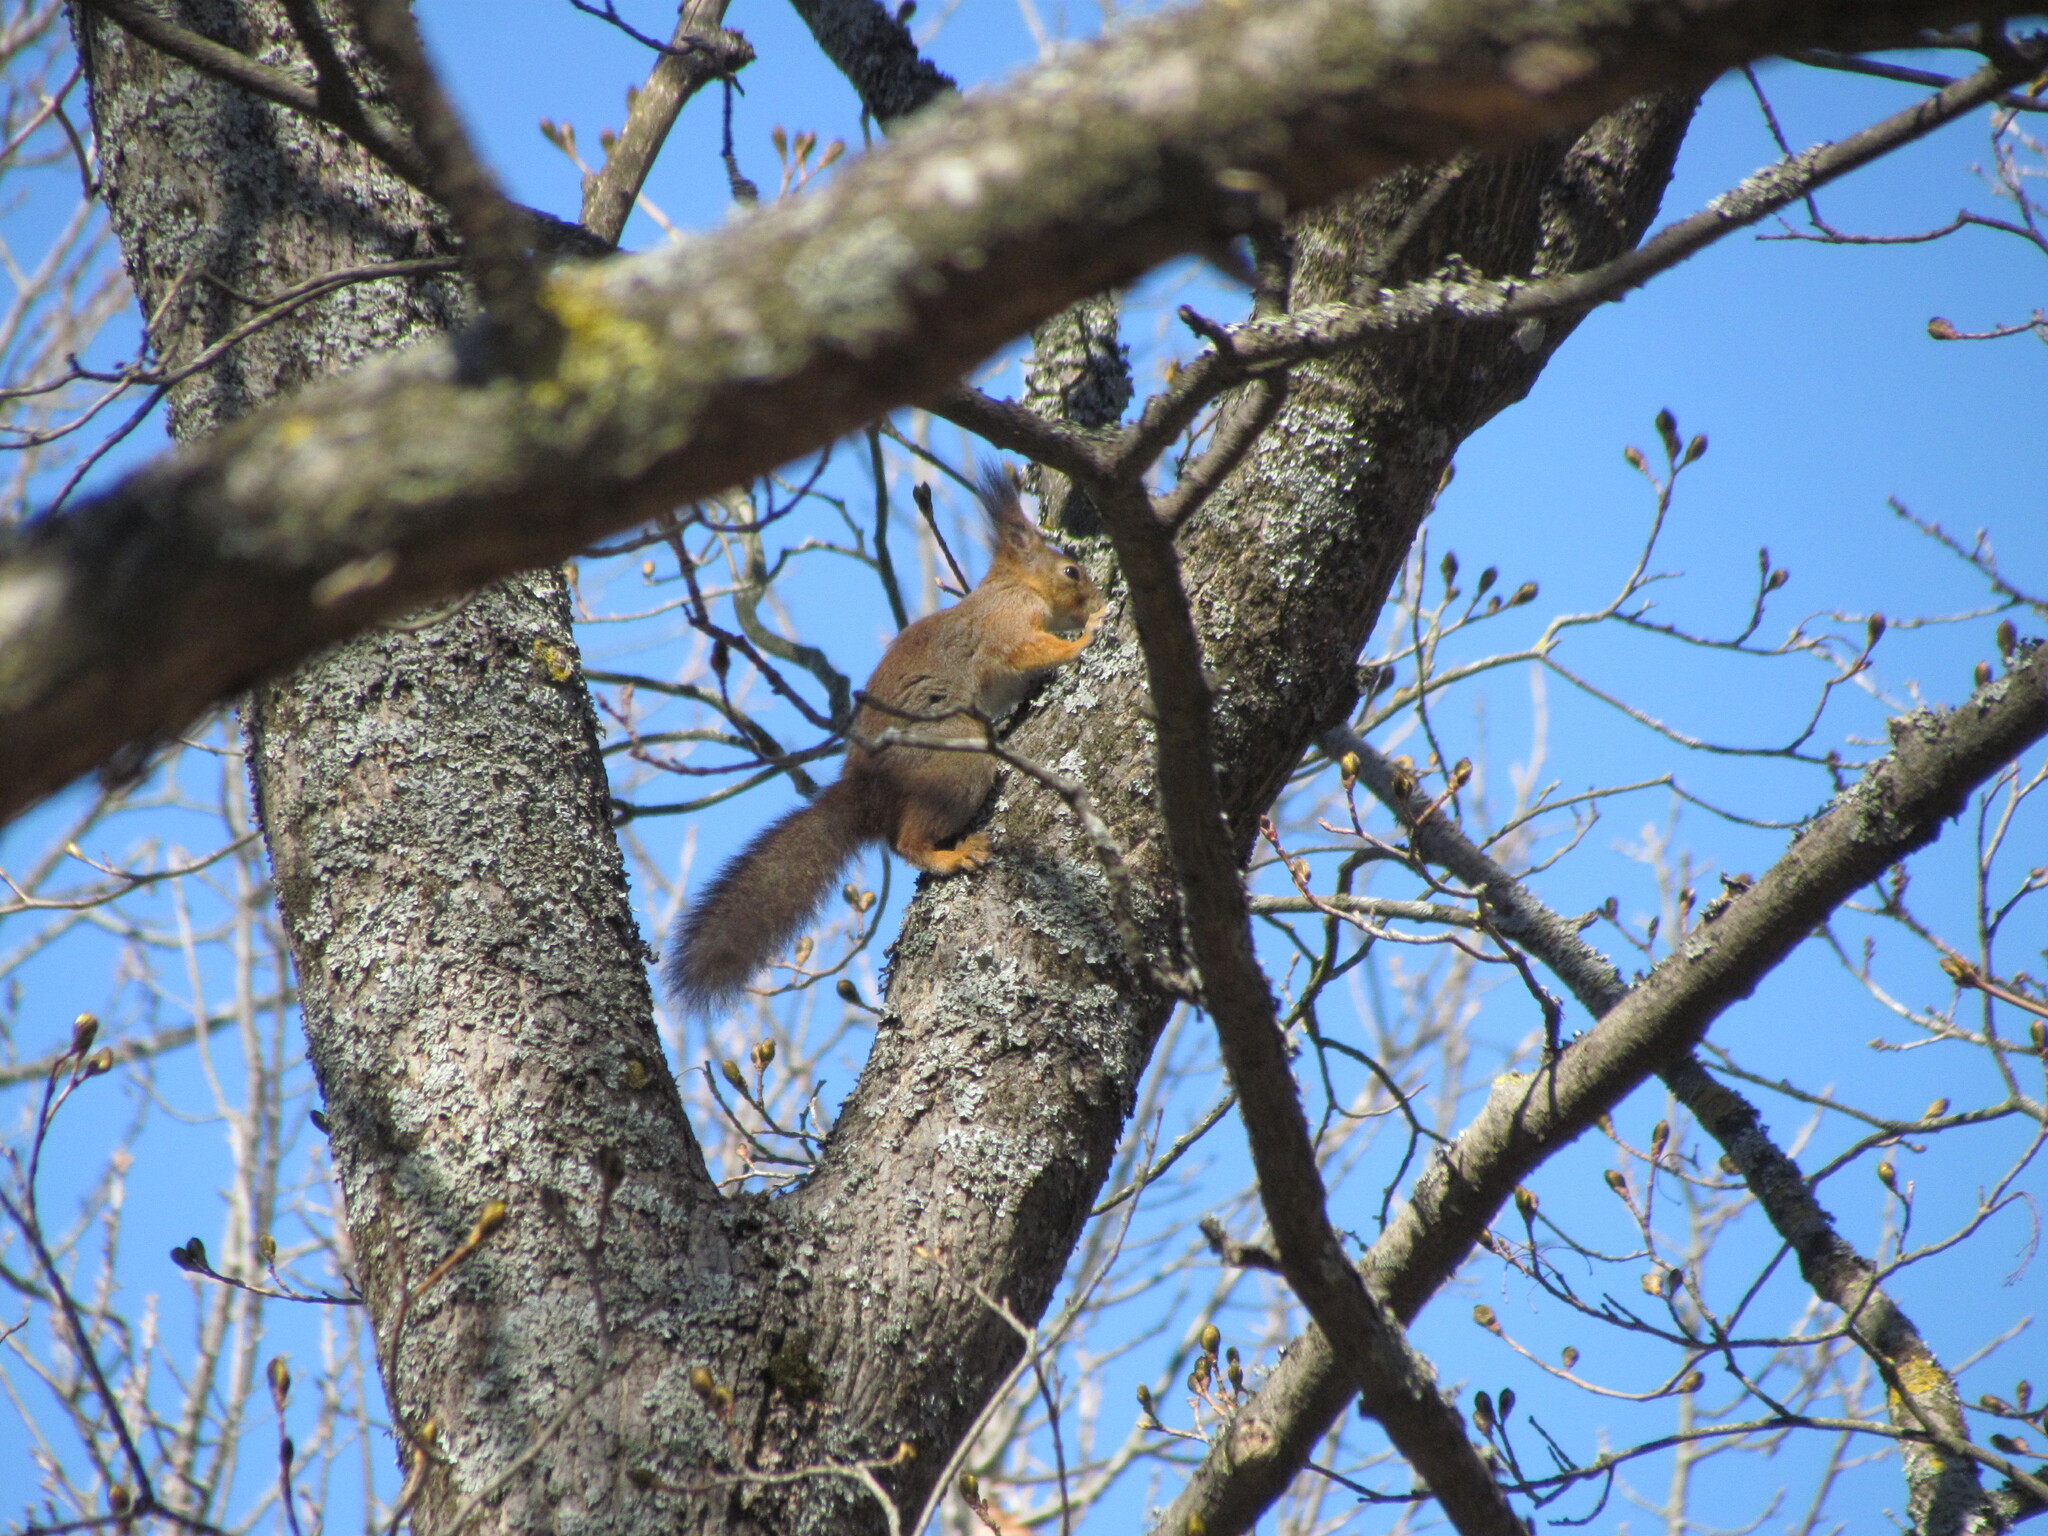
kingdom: Animalia
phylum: Chordata
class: Mammalia
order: Rodentia
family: Sciuridae
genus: Sciurus
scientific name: Sciurus vulgaris
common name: Eurasian red squirrel
